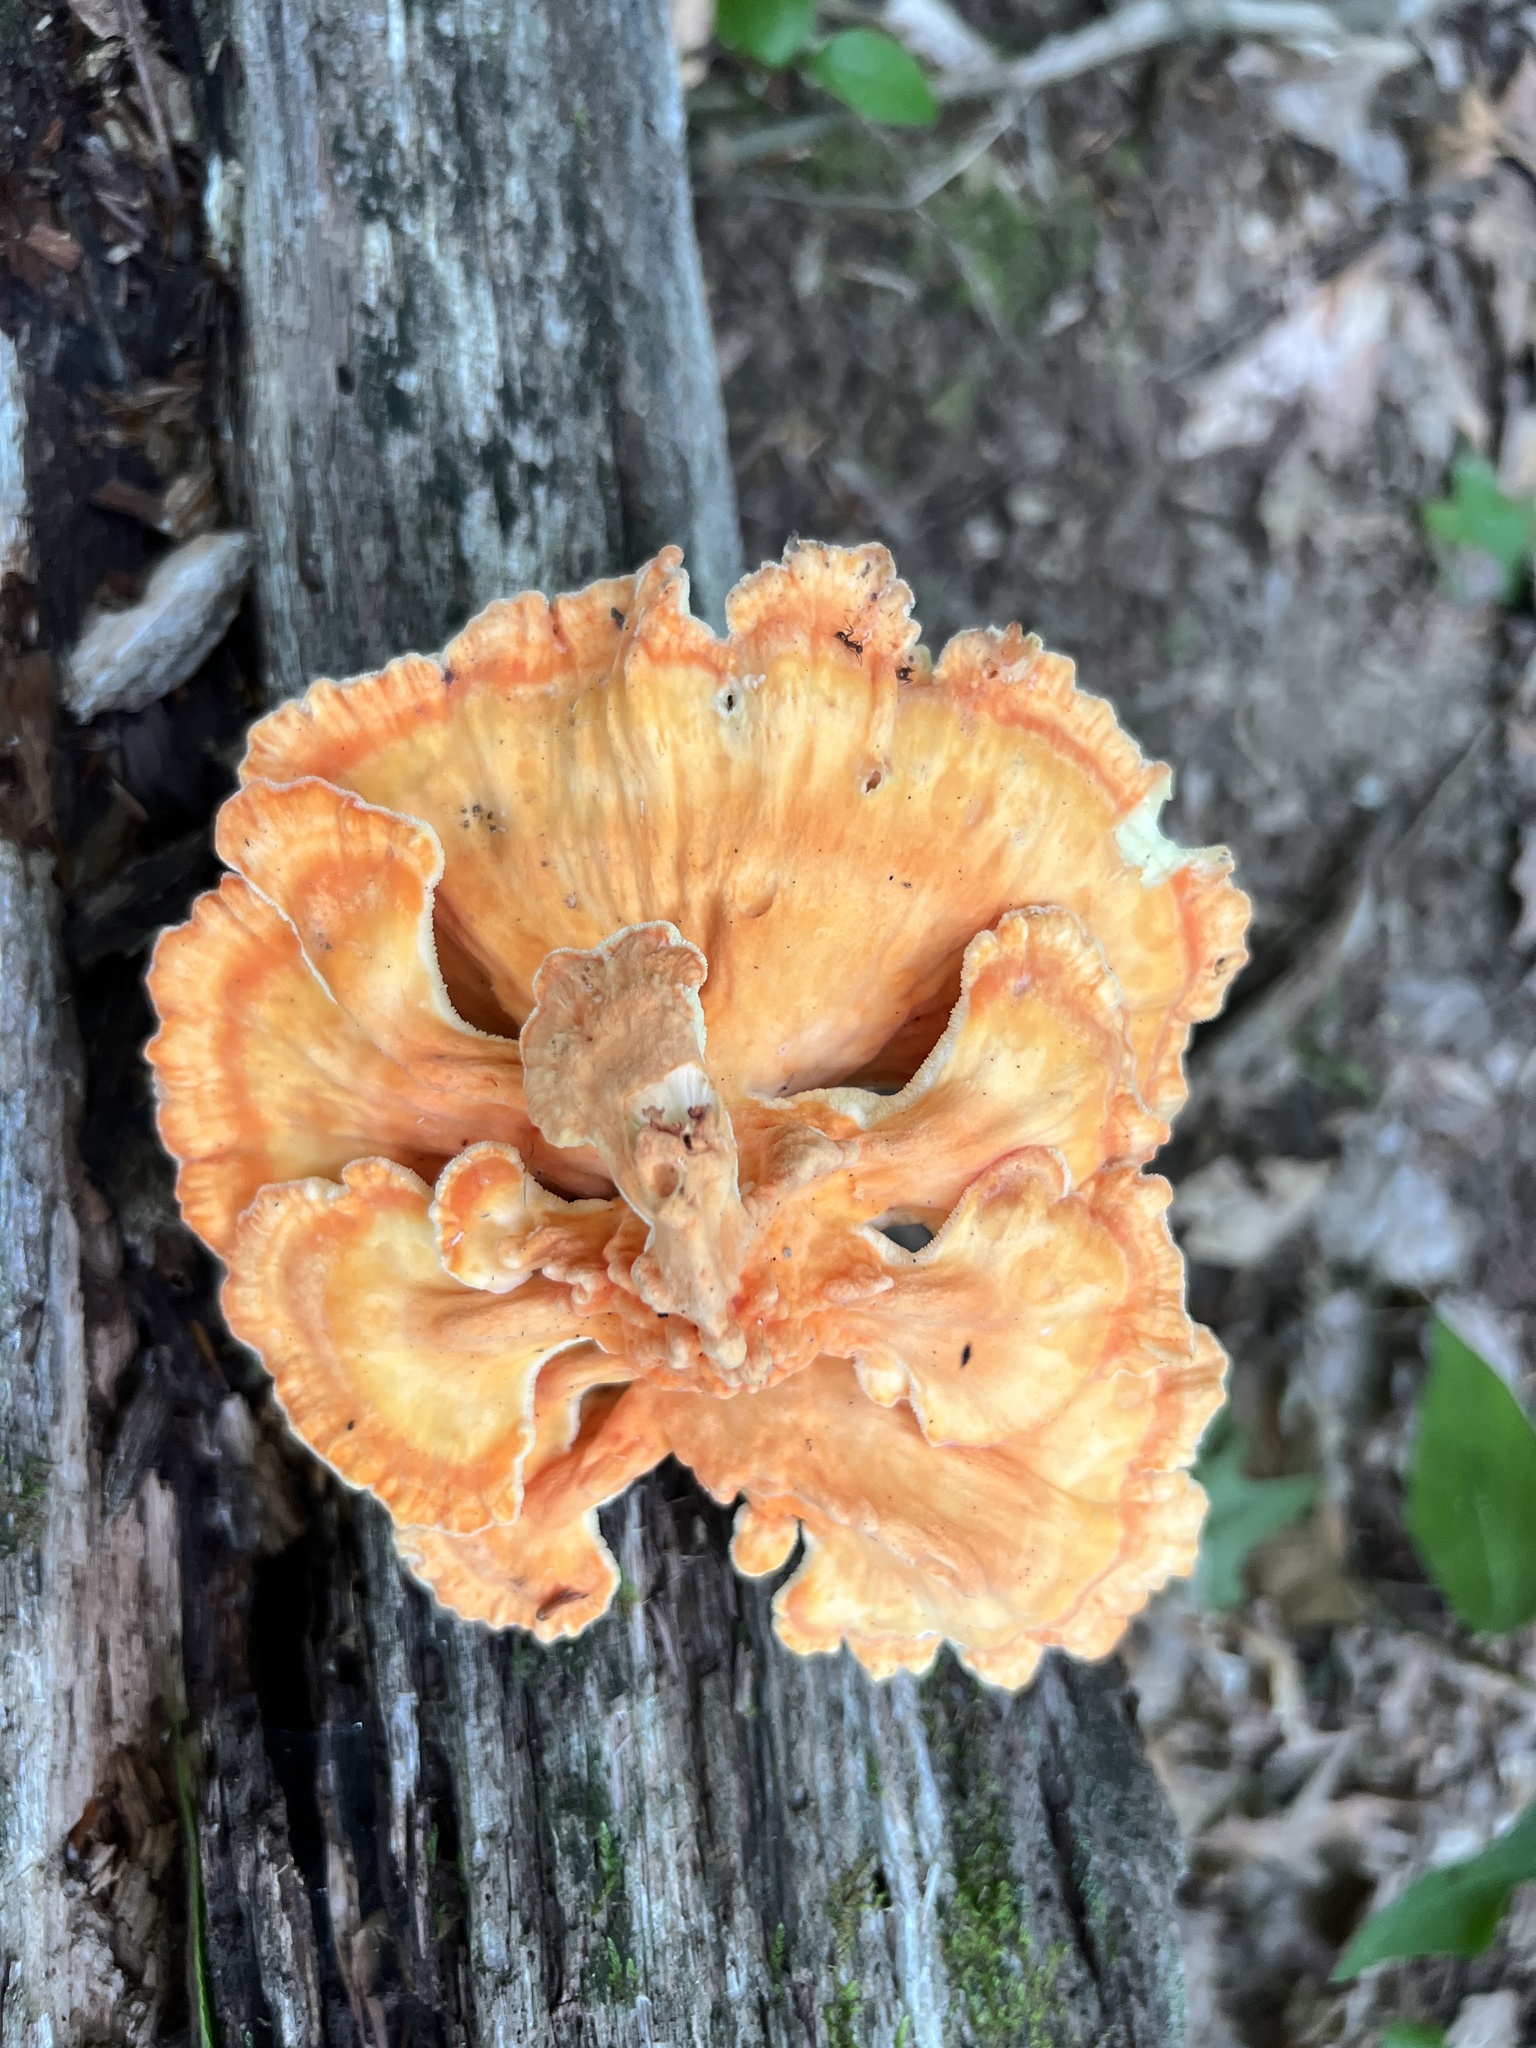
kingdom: Fungi
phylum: Basidiomycota
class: Agaricomycetes
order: Polyporales
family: Laetiporaceae
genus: Laetiporus
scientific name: Laetiporus sulphureus
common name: Chicken of the woods
